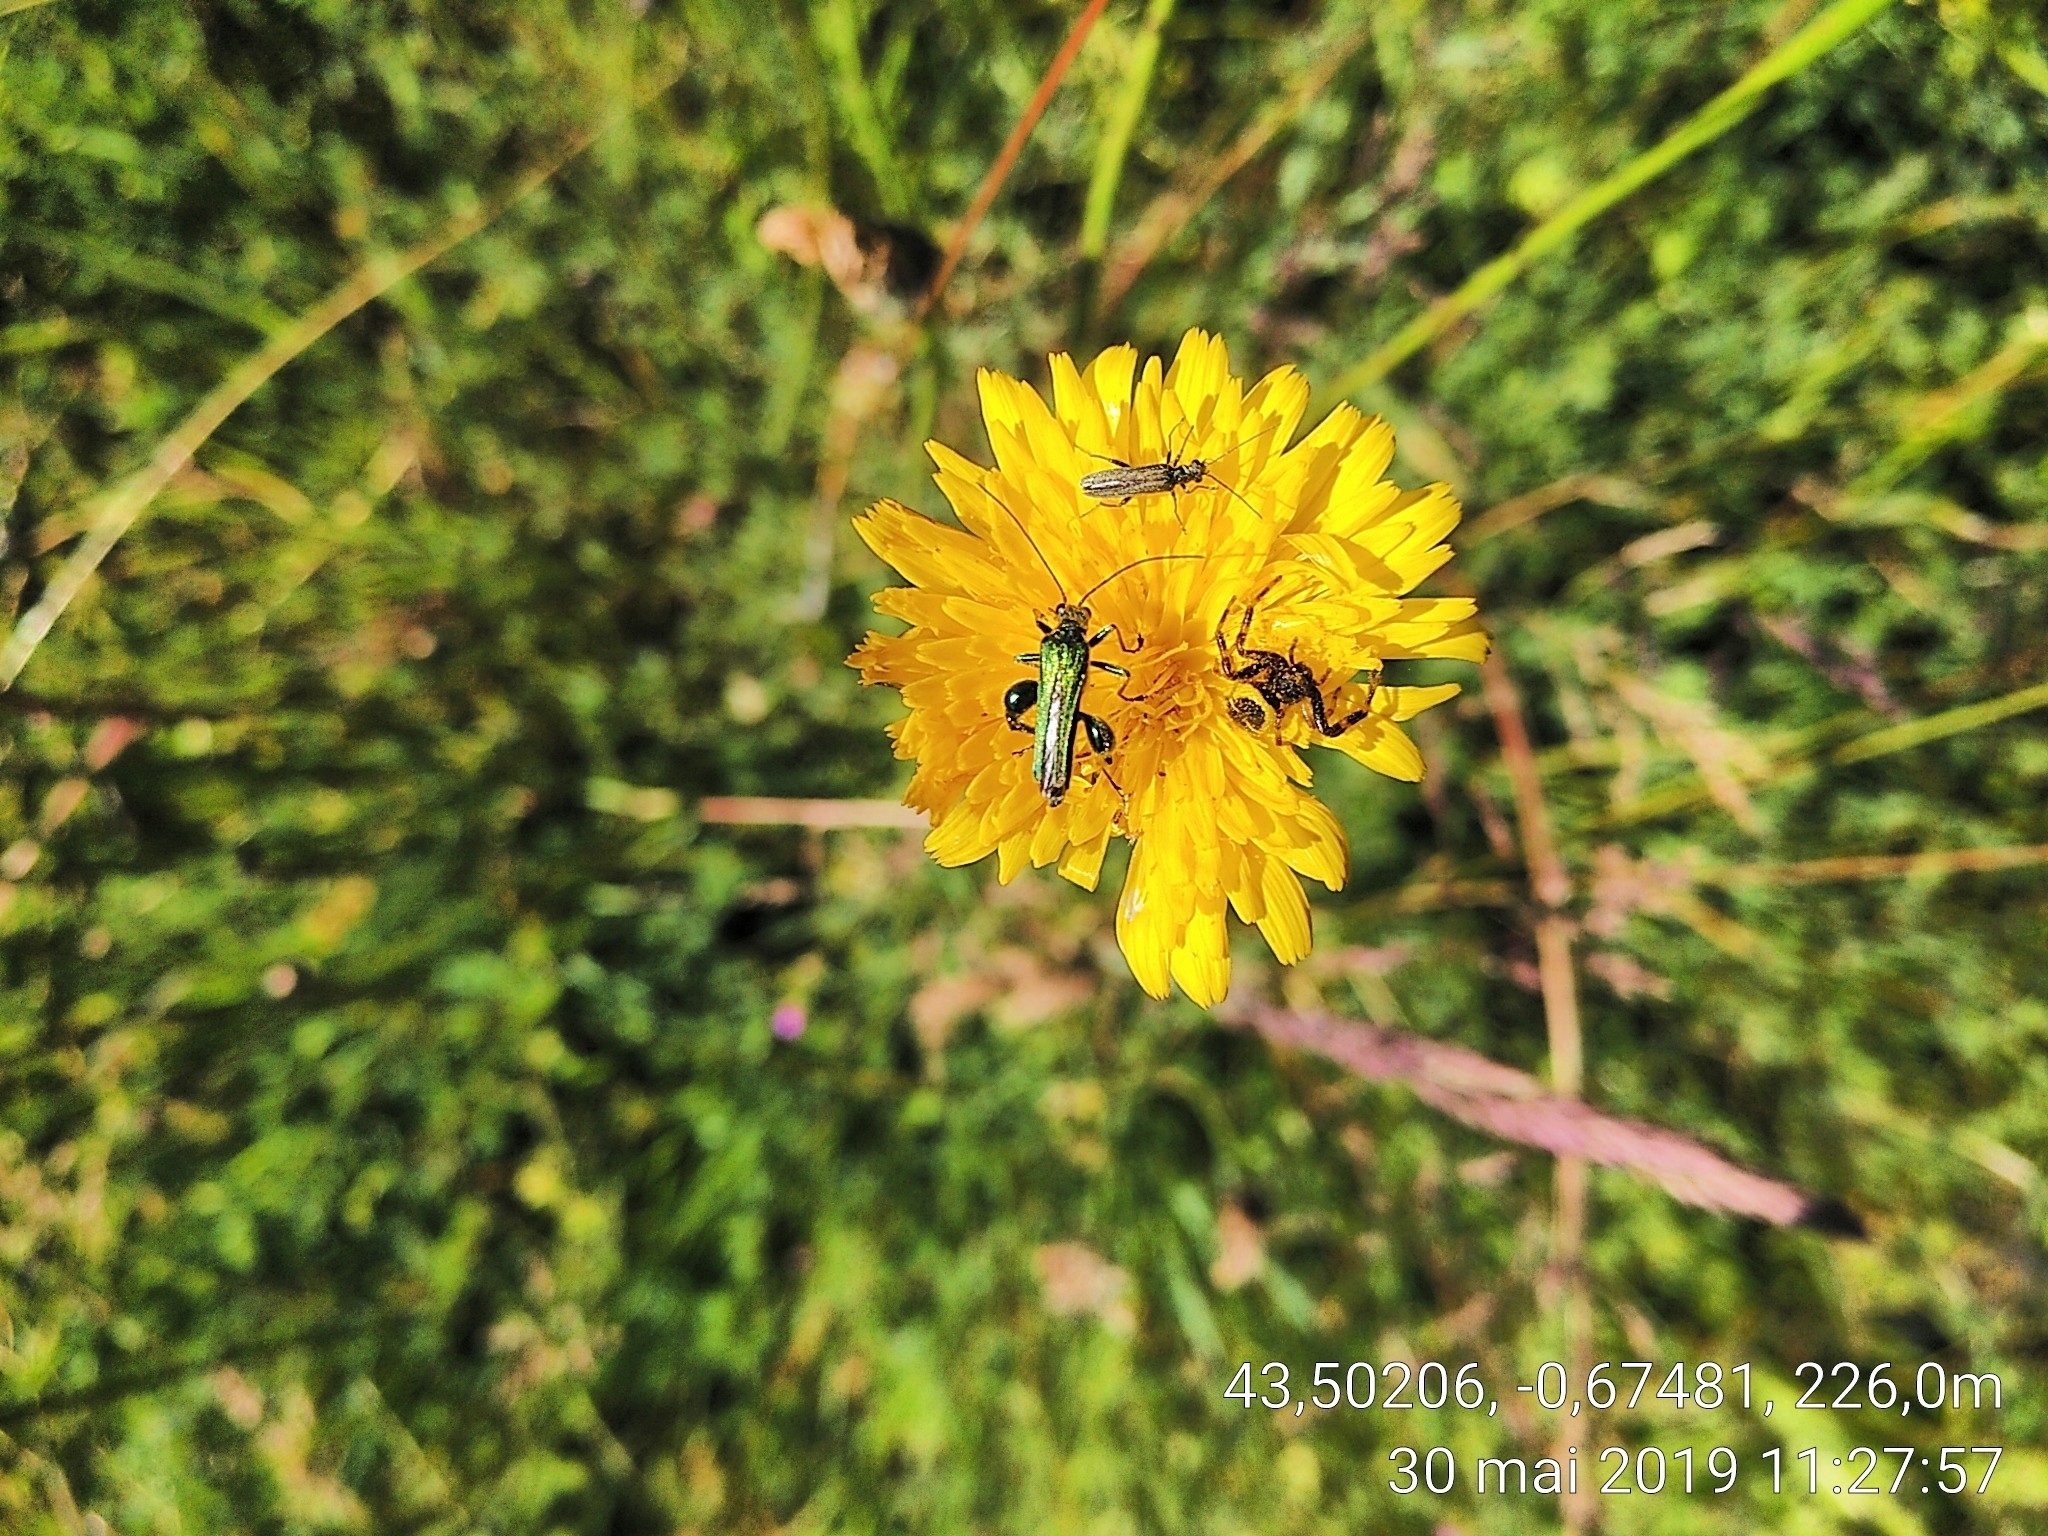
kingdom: Animalia
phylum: Arthropoda
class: Insecta
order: Coleoptera
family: Oedemeridae
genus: Oedemera
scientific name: Oedemera nobilis
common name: Swollen-thighed beetle
